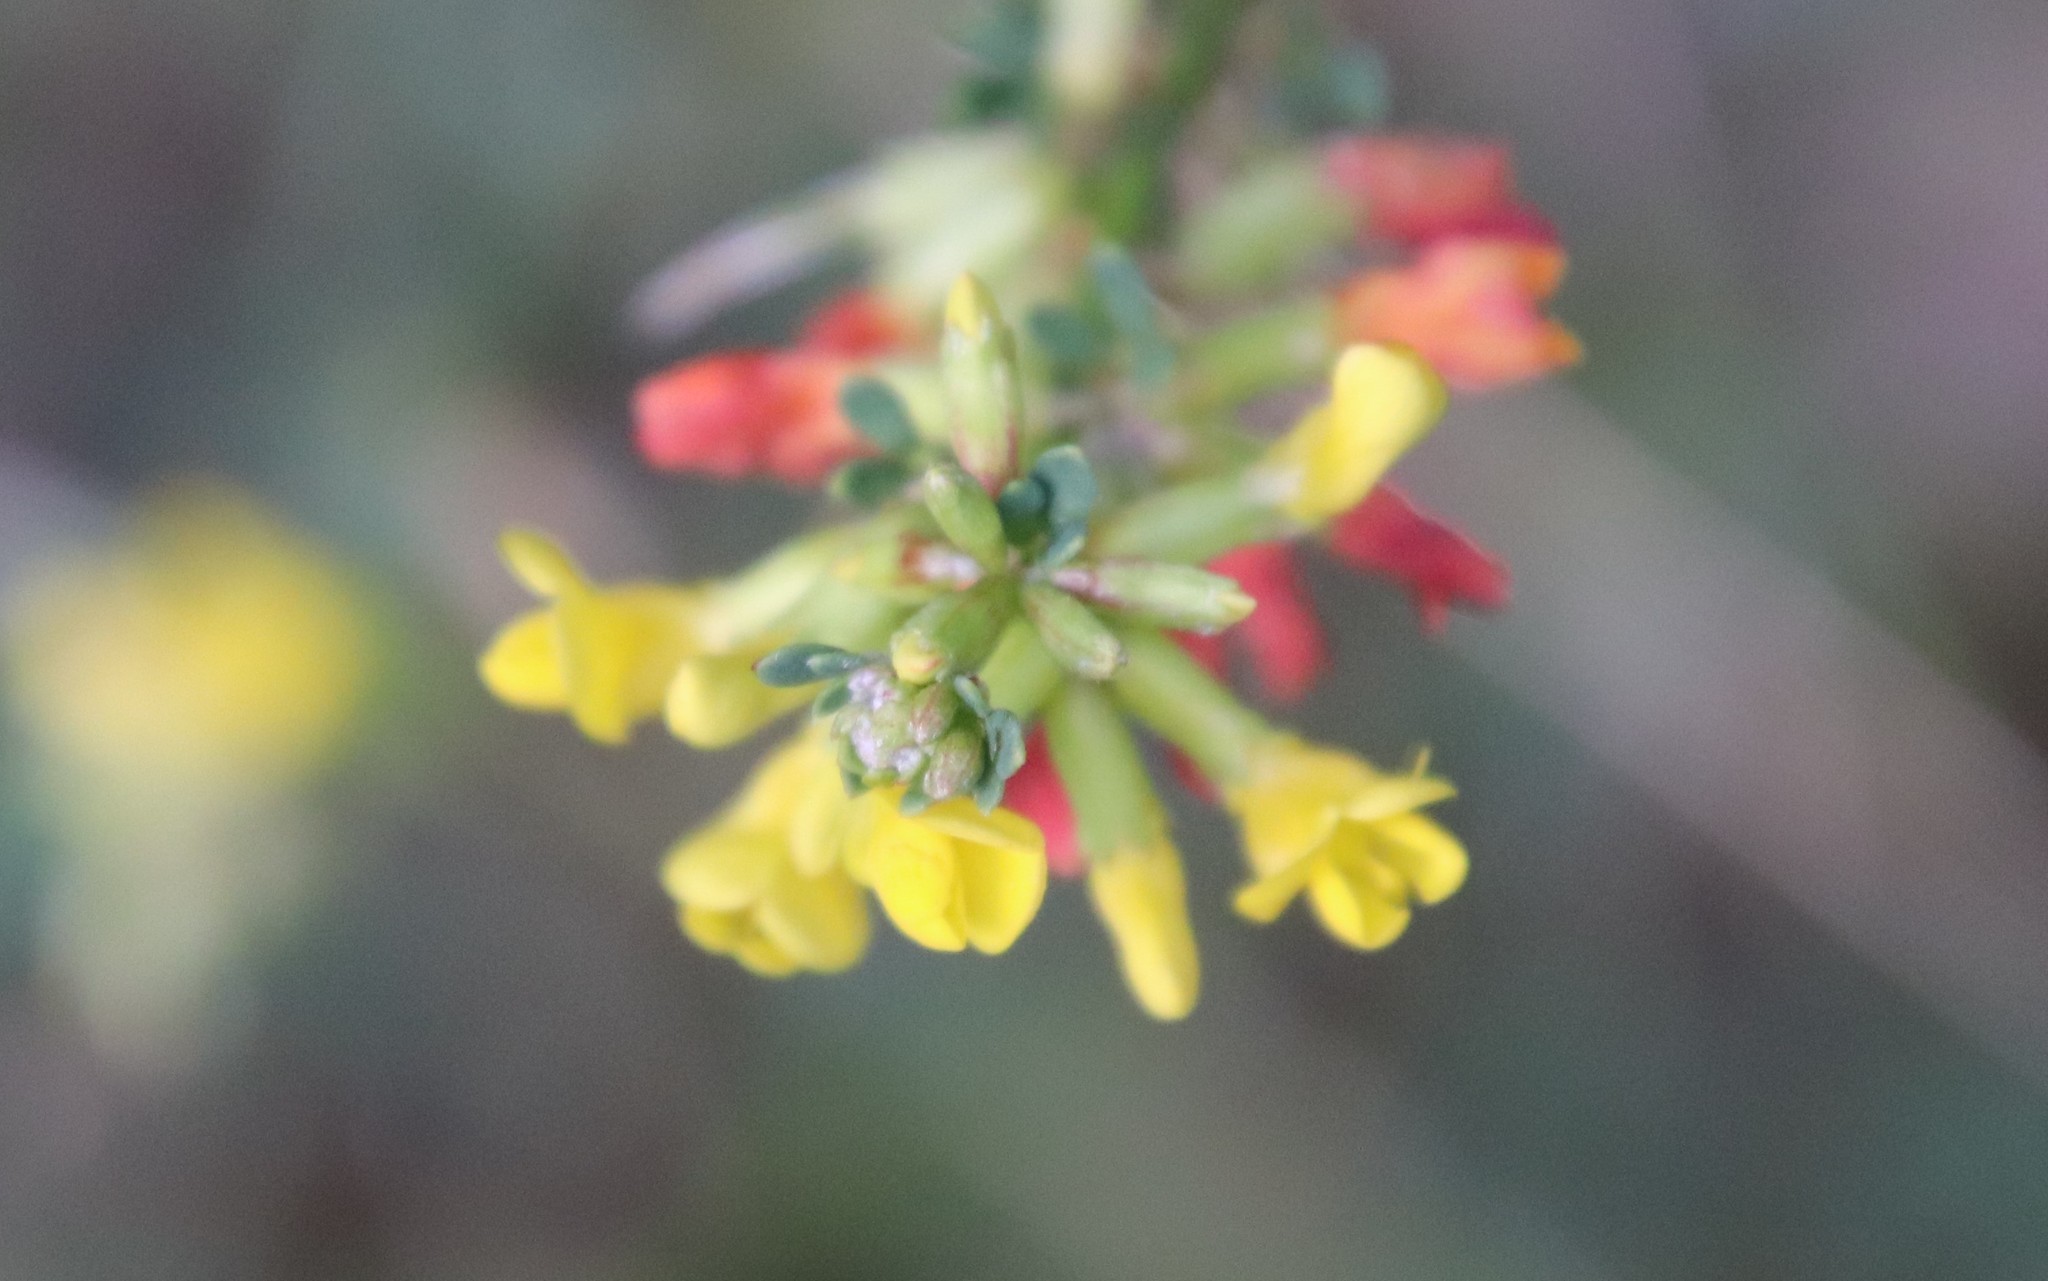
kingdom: Plantae
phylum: Tracheophyta
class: Magnoliopsida
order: Fabales
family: Fabaceae
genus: Acmispon
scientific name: Acmispon glaber
